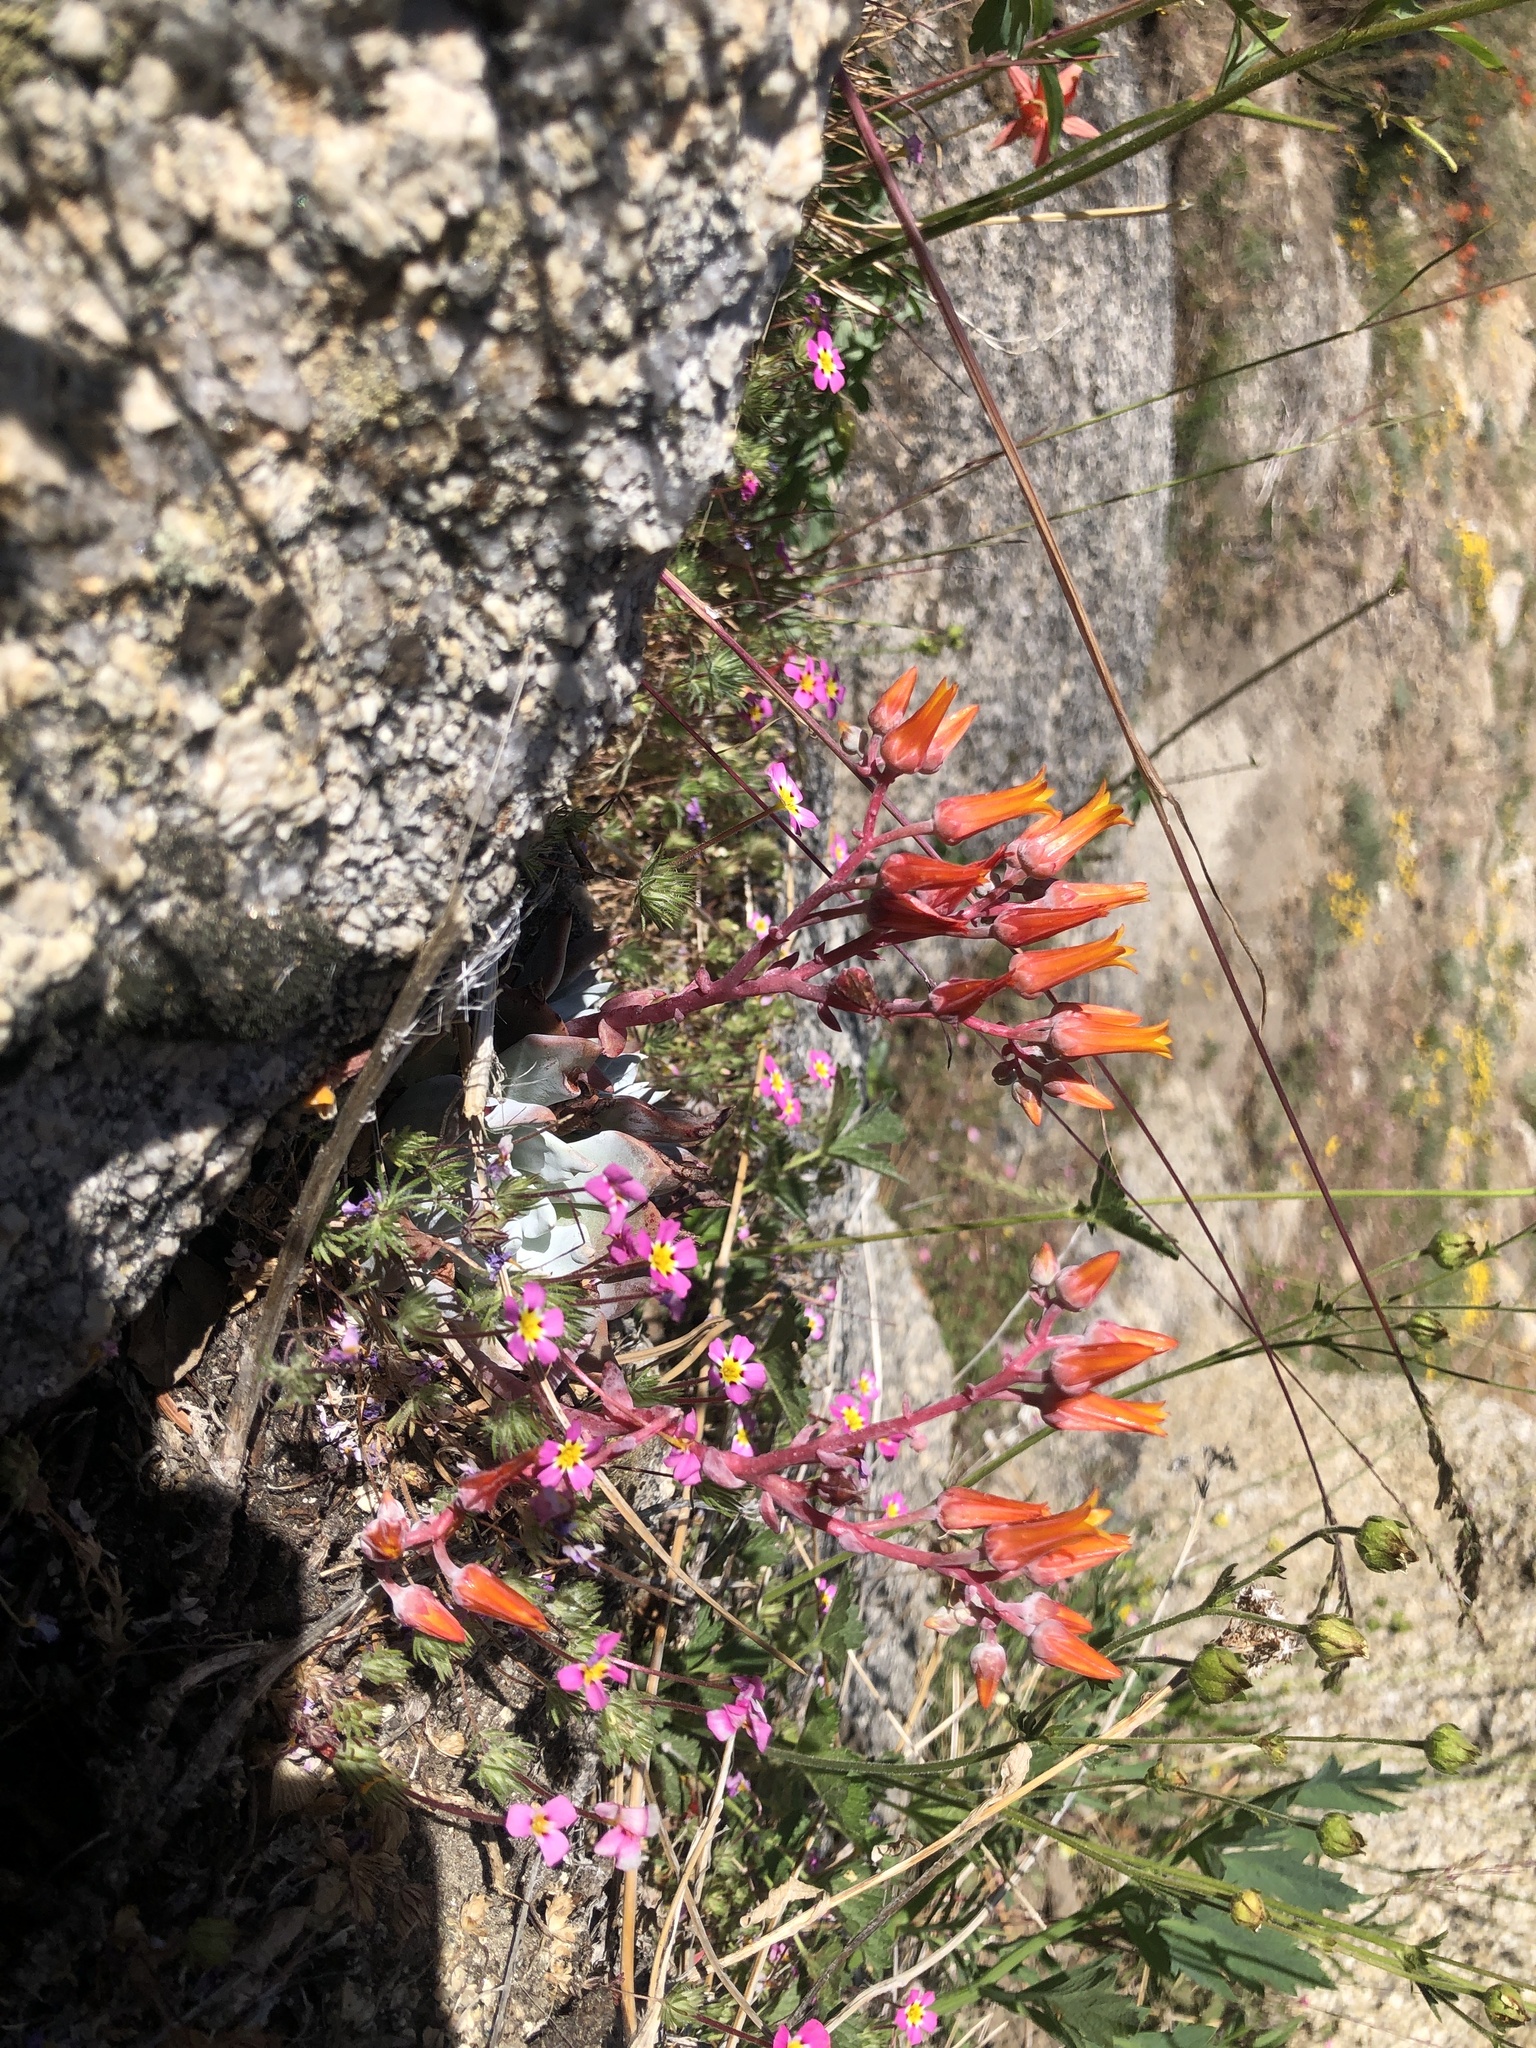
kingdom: Plantae
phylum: Tracheophyta
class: Magnoliopsida
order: Saxifragales
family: Crassulaceae
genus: Dudleya
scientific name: Dudleya cymosa
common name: Canyon dudleya
